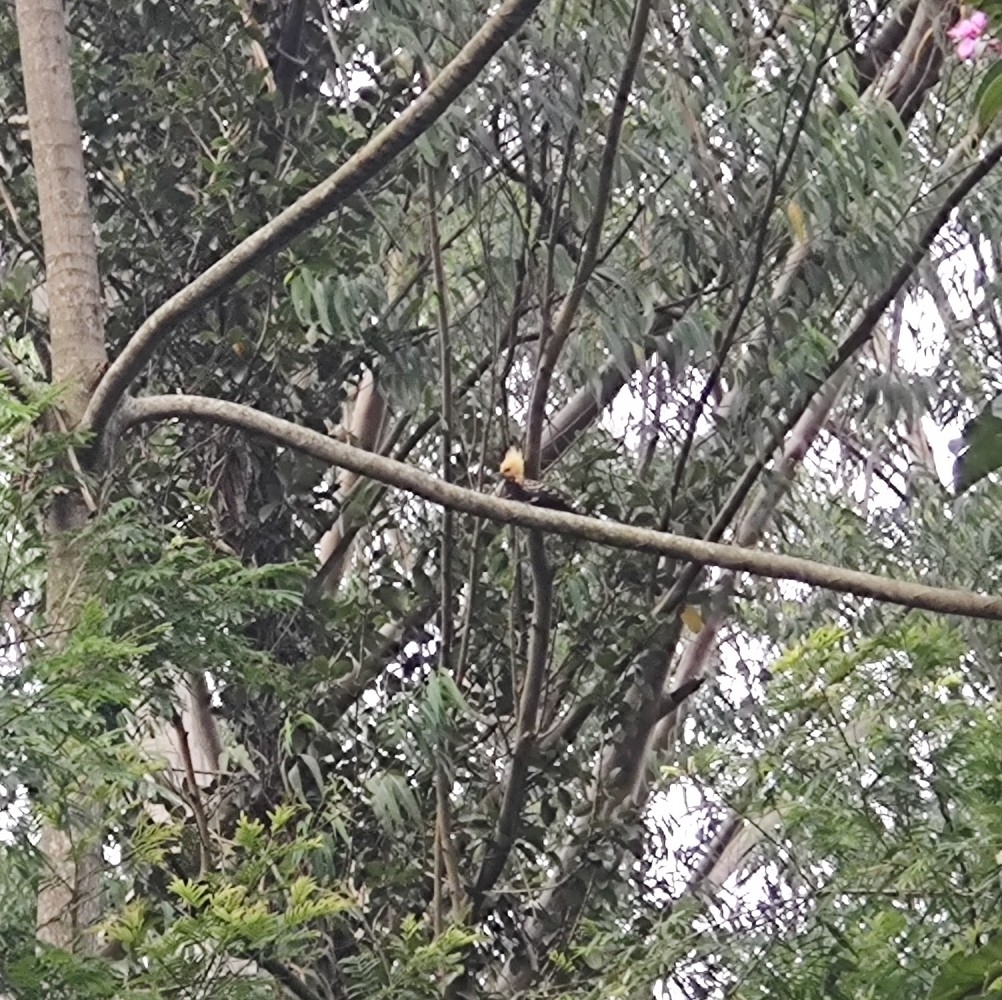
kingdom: Animalia
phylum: Chordata
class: Aves
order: Piciformes
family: Picidae
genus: Celeus
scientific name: Celeus flavescens
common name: Blond-crested woodpecker
